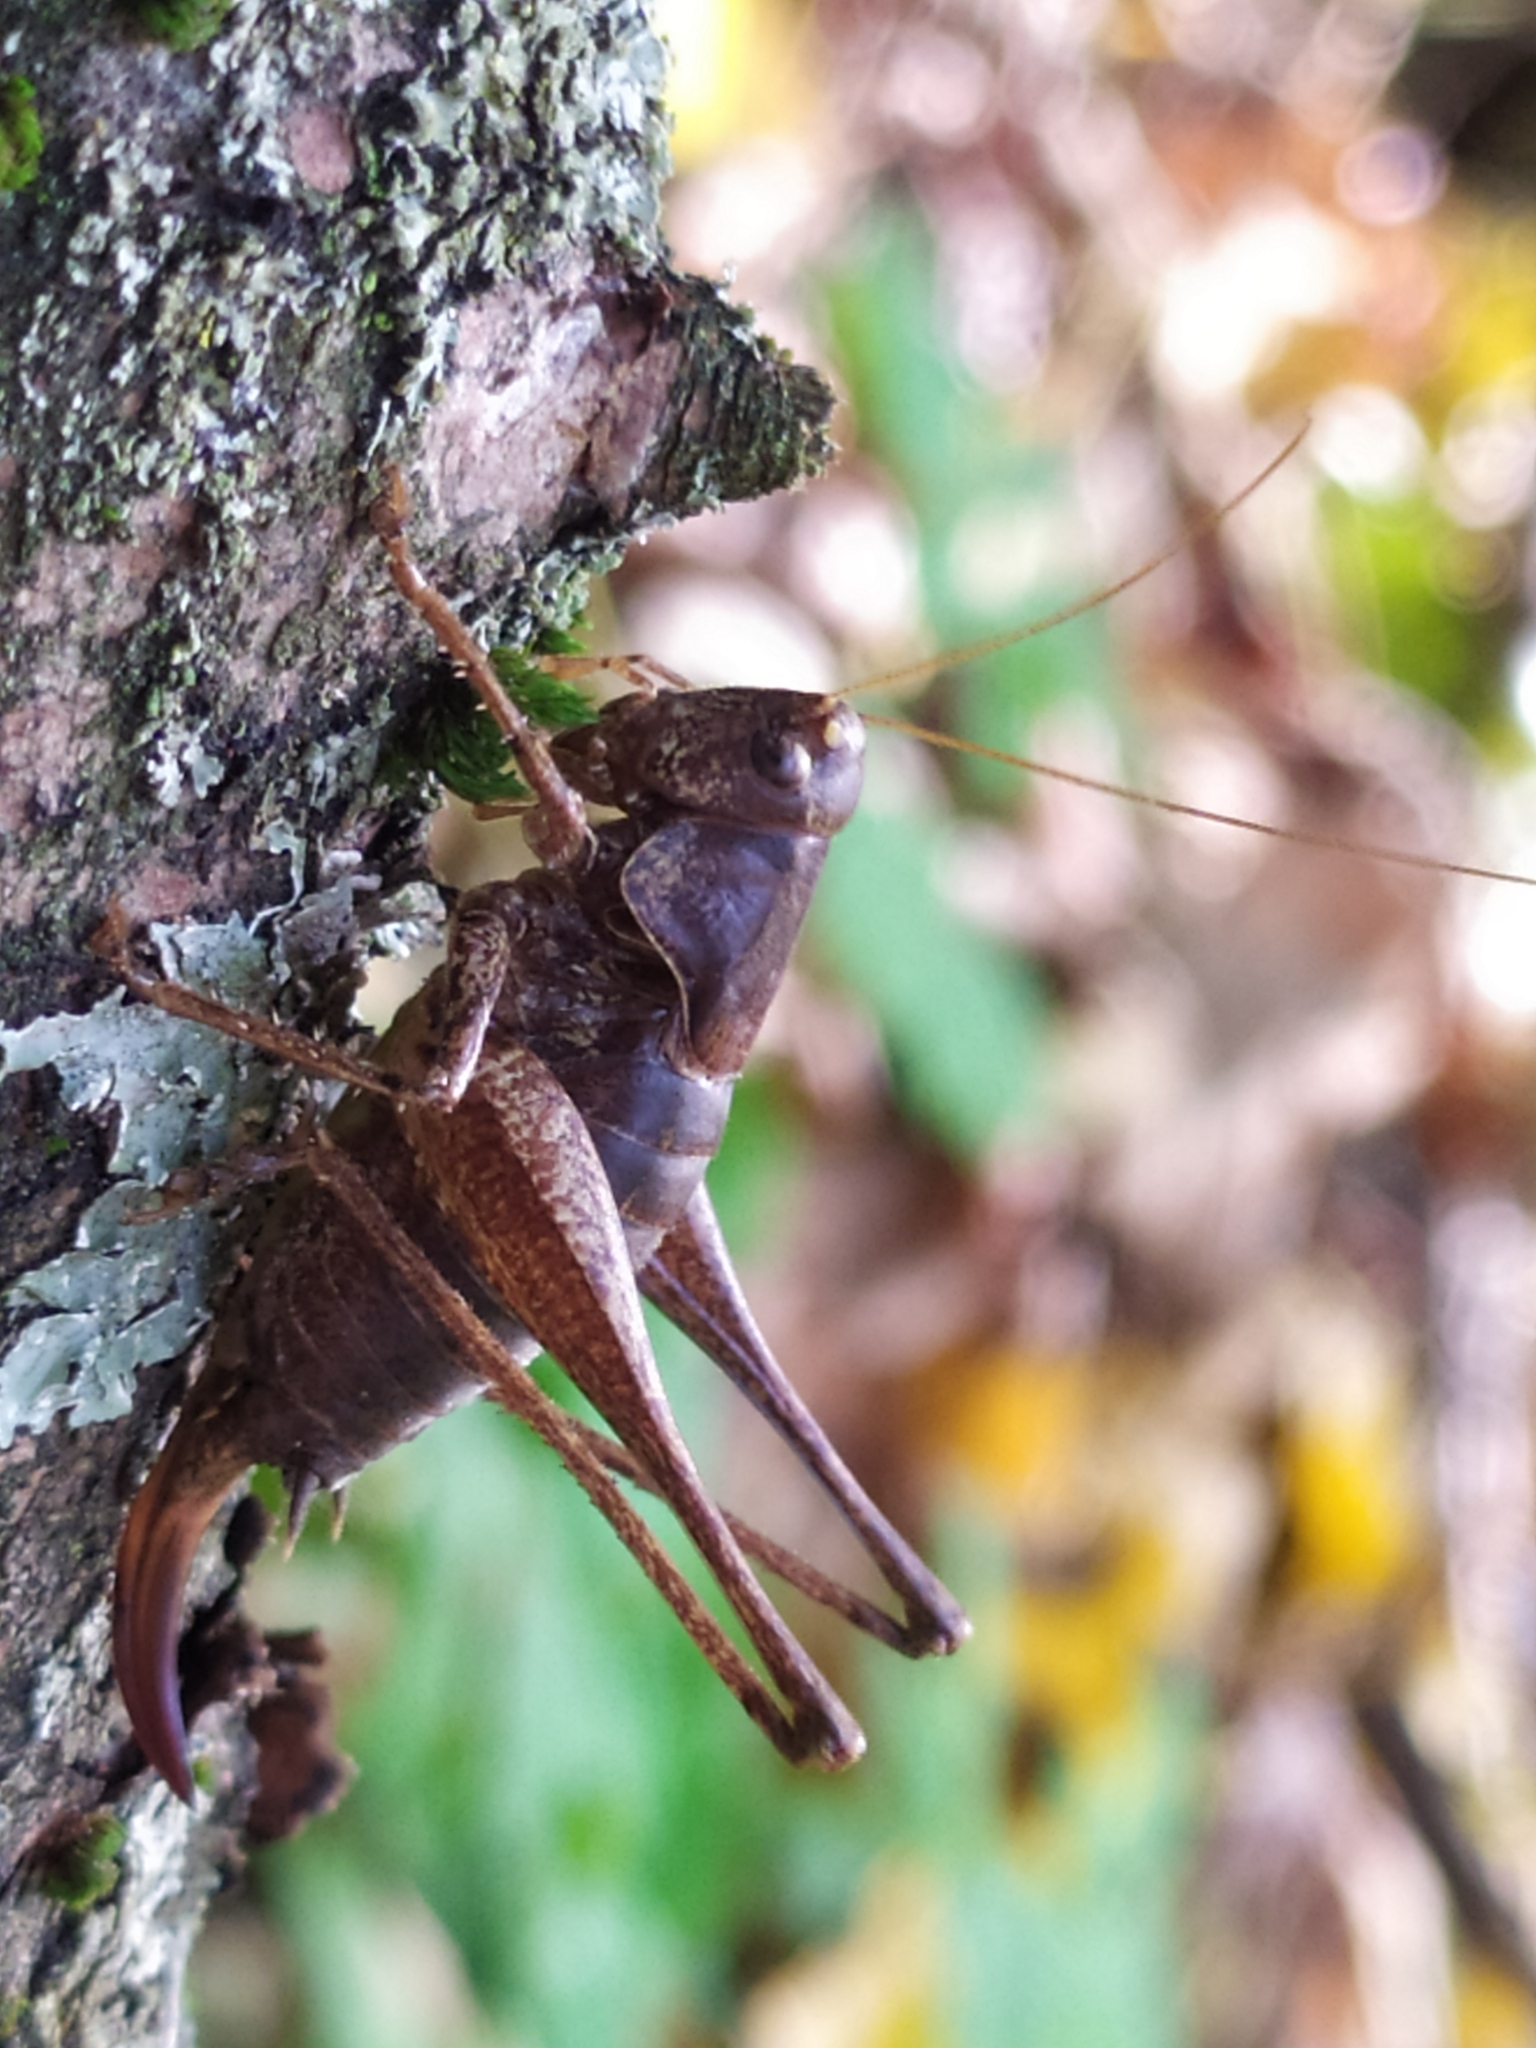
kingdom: Animalia
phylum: Arthropoda
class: Insecta
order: Orthoptera
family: Tettigoniidae
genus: Pholidoptera
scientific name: Pholidoptera griseoaptera
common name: Dark bush-cricket
